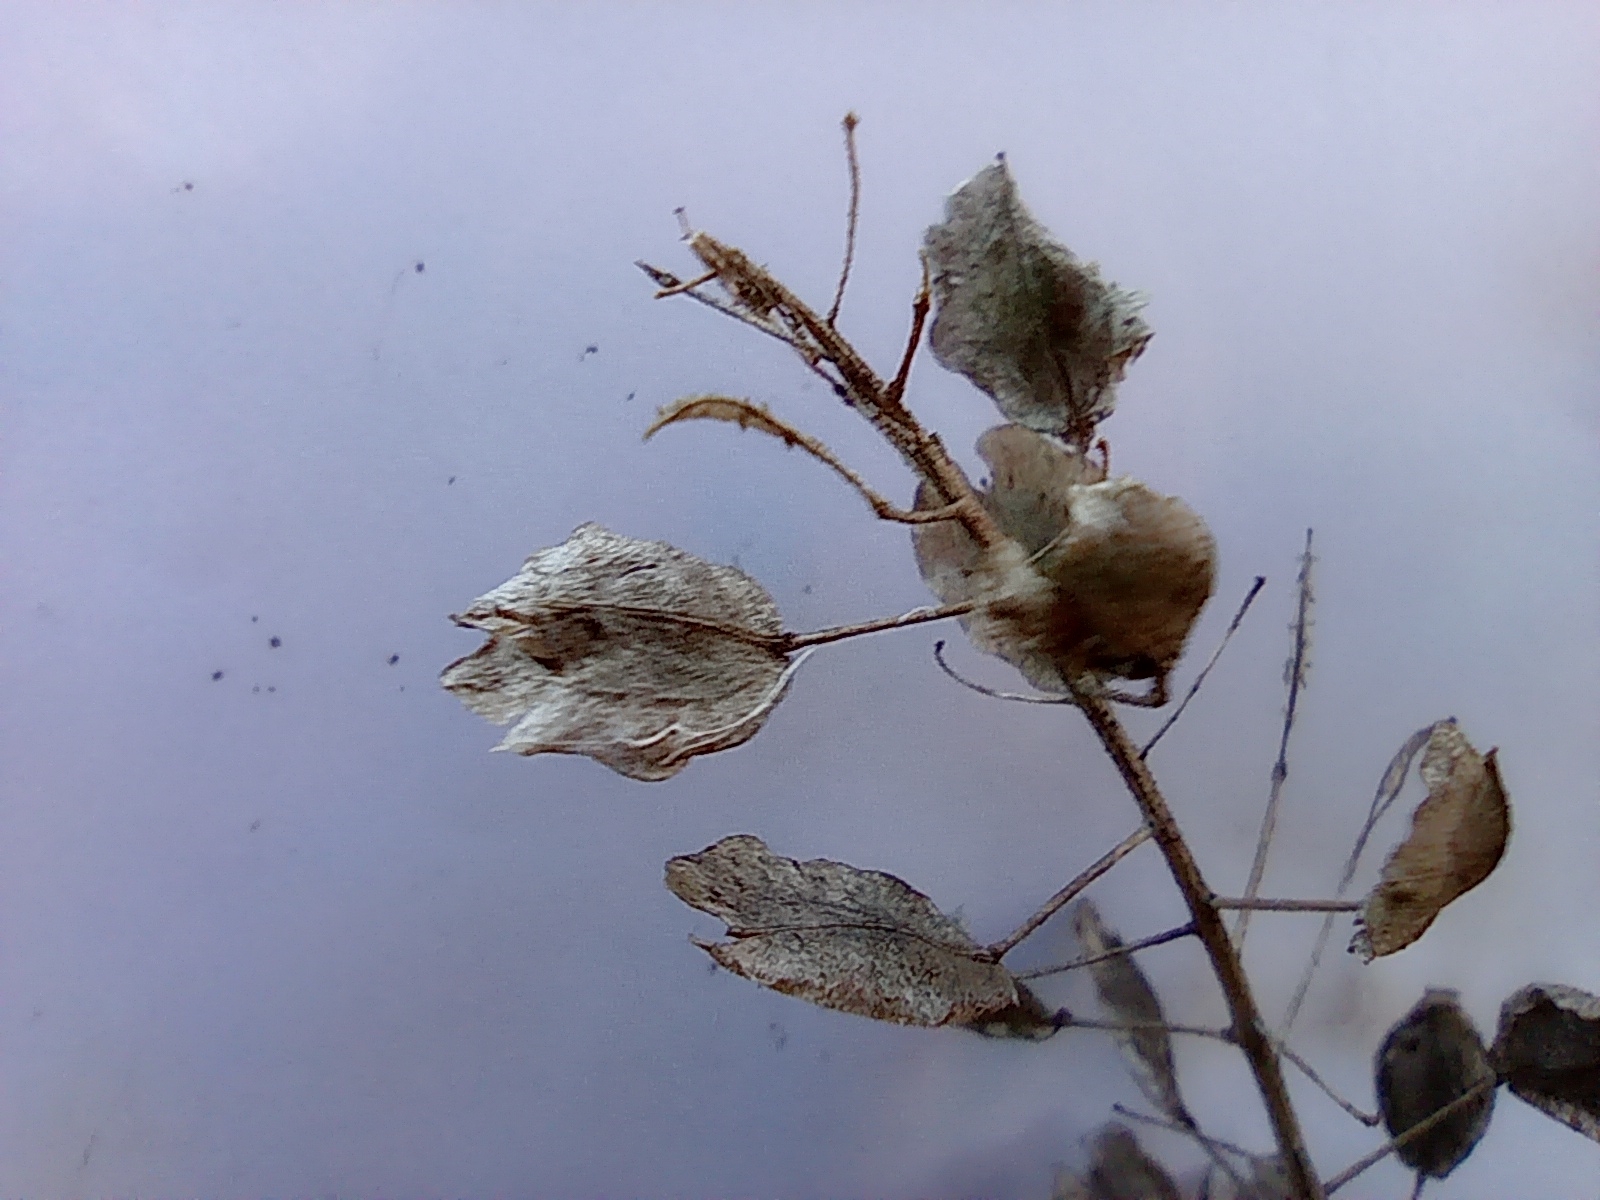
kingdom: Plantae
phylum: Tracheophyta
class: Magnoliopsida
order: Brassicales
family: Brassicaceae
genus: Thlaspi
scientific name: Thlaspi arvense
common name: Field pennycress
